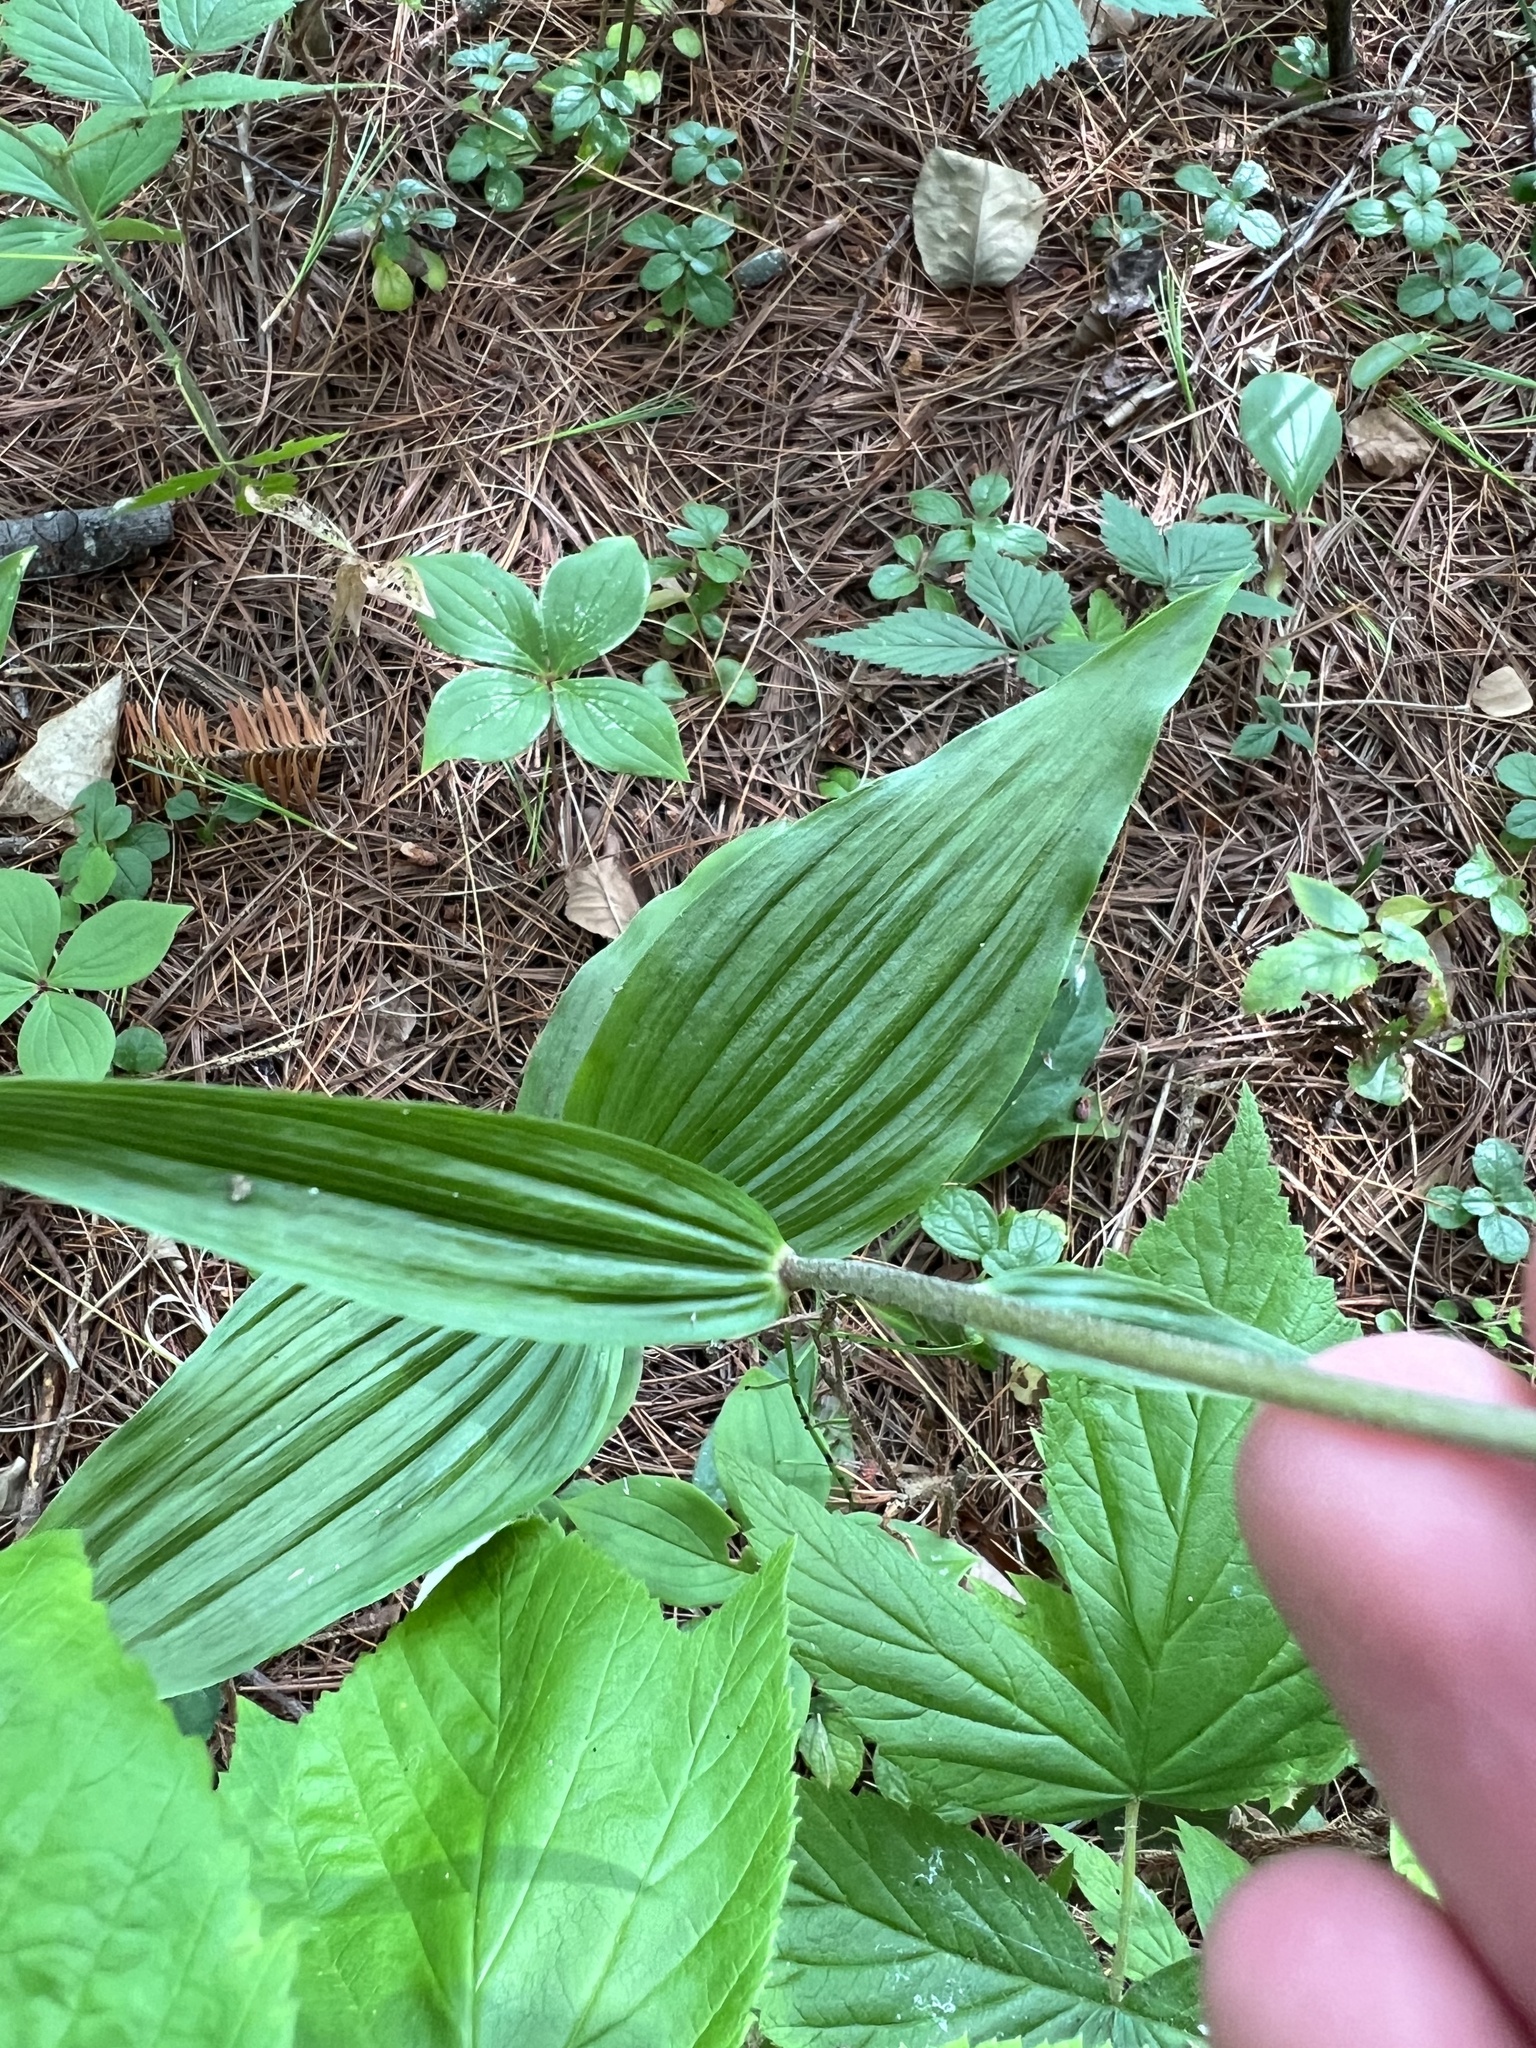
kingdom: Plantae
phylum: Tracheophyta
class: Liliopsida
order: Asparagales
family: Orchidaceae
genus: Epipactis
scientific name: Epipactis helleborine
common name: Broad-leaved helleborine
